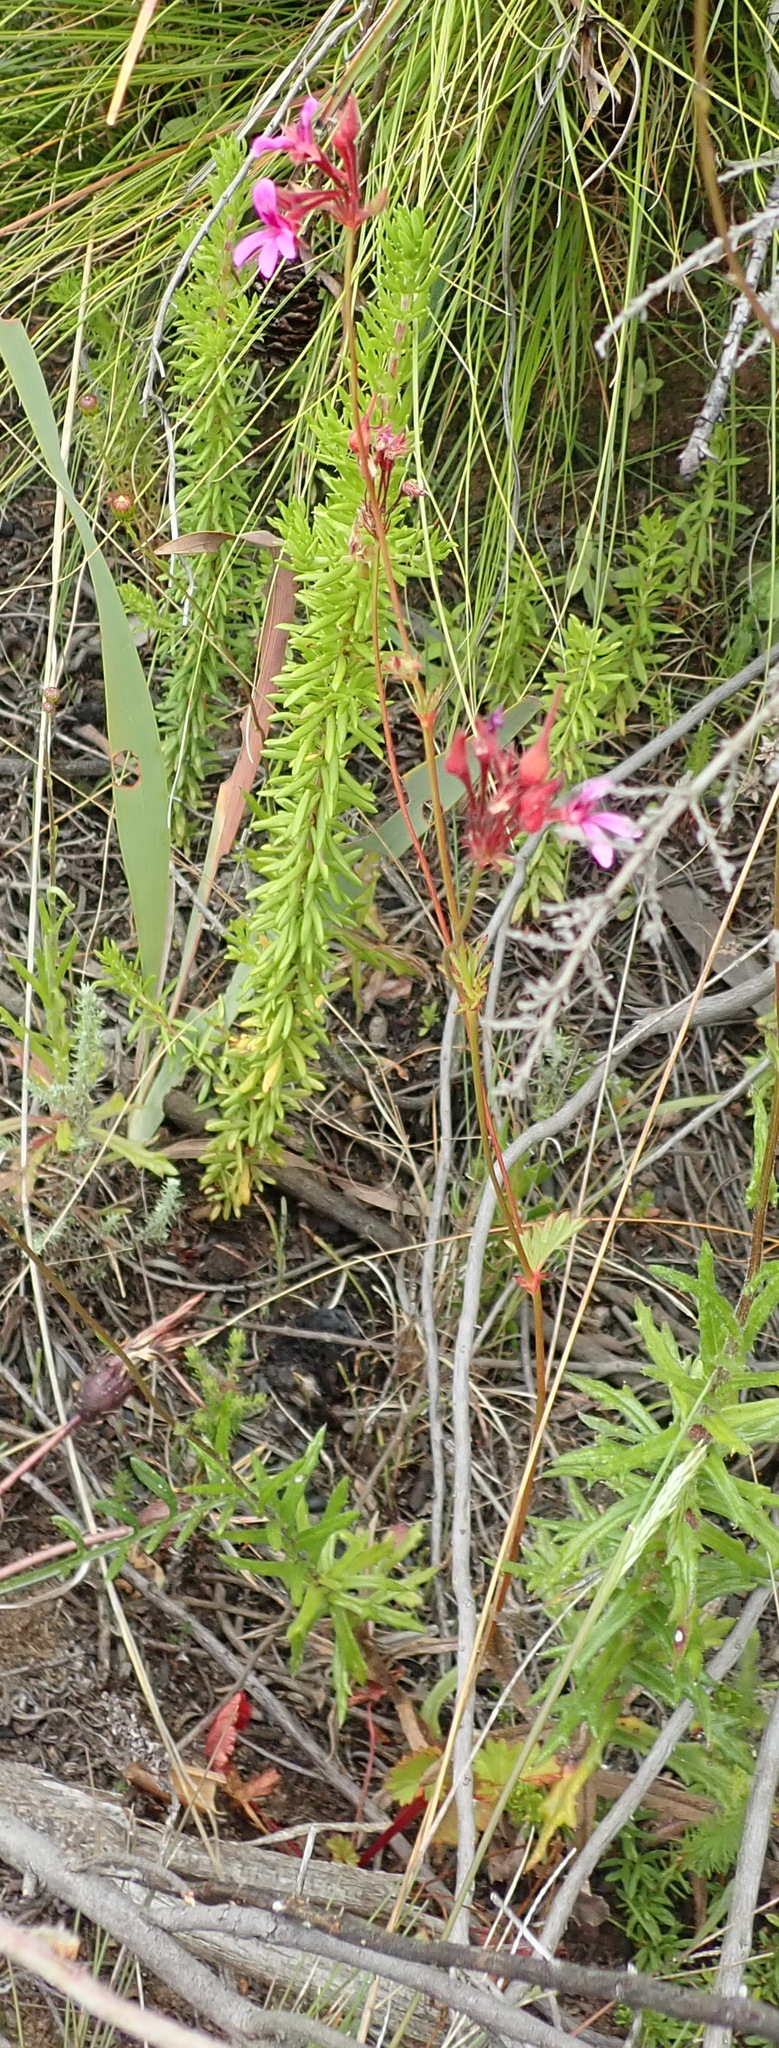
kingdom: Plantae
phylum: Tracheophyta
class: Magnoliopsida
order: Geraniales
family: Geraniaceae
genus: Pelargonium
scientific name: Pelargonium grossularioides
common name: Gooseberry geranium
